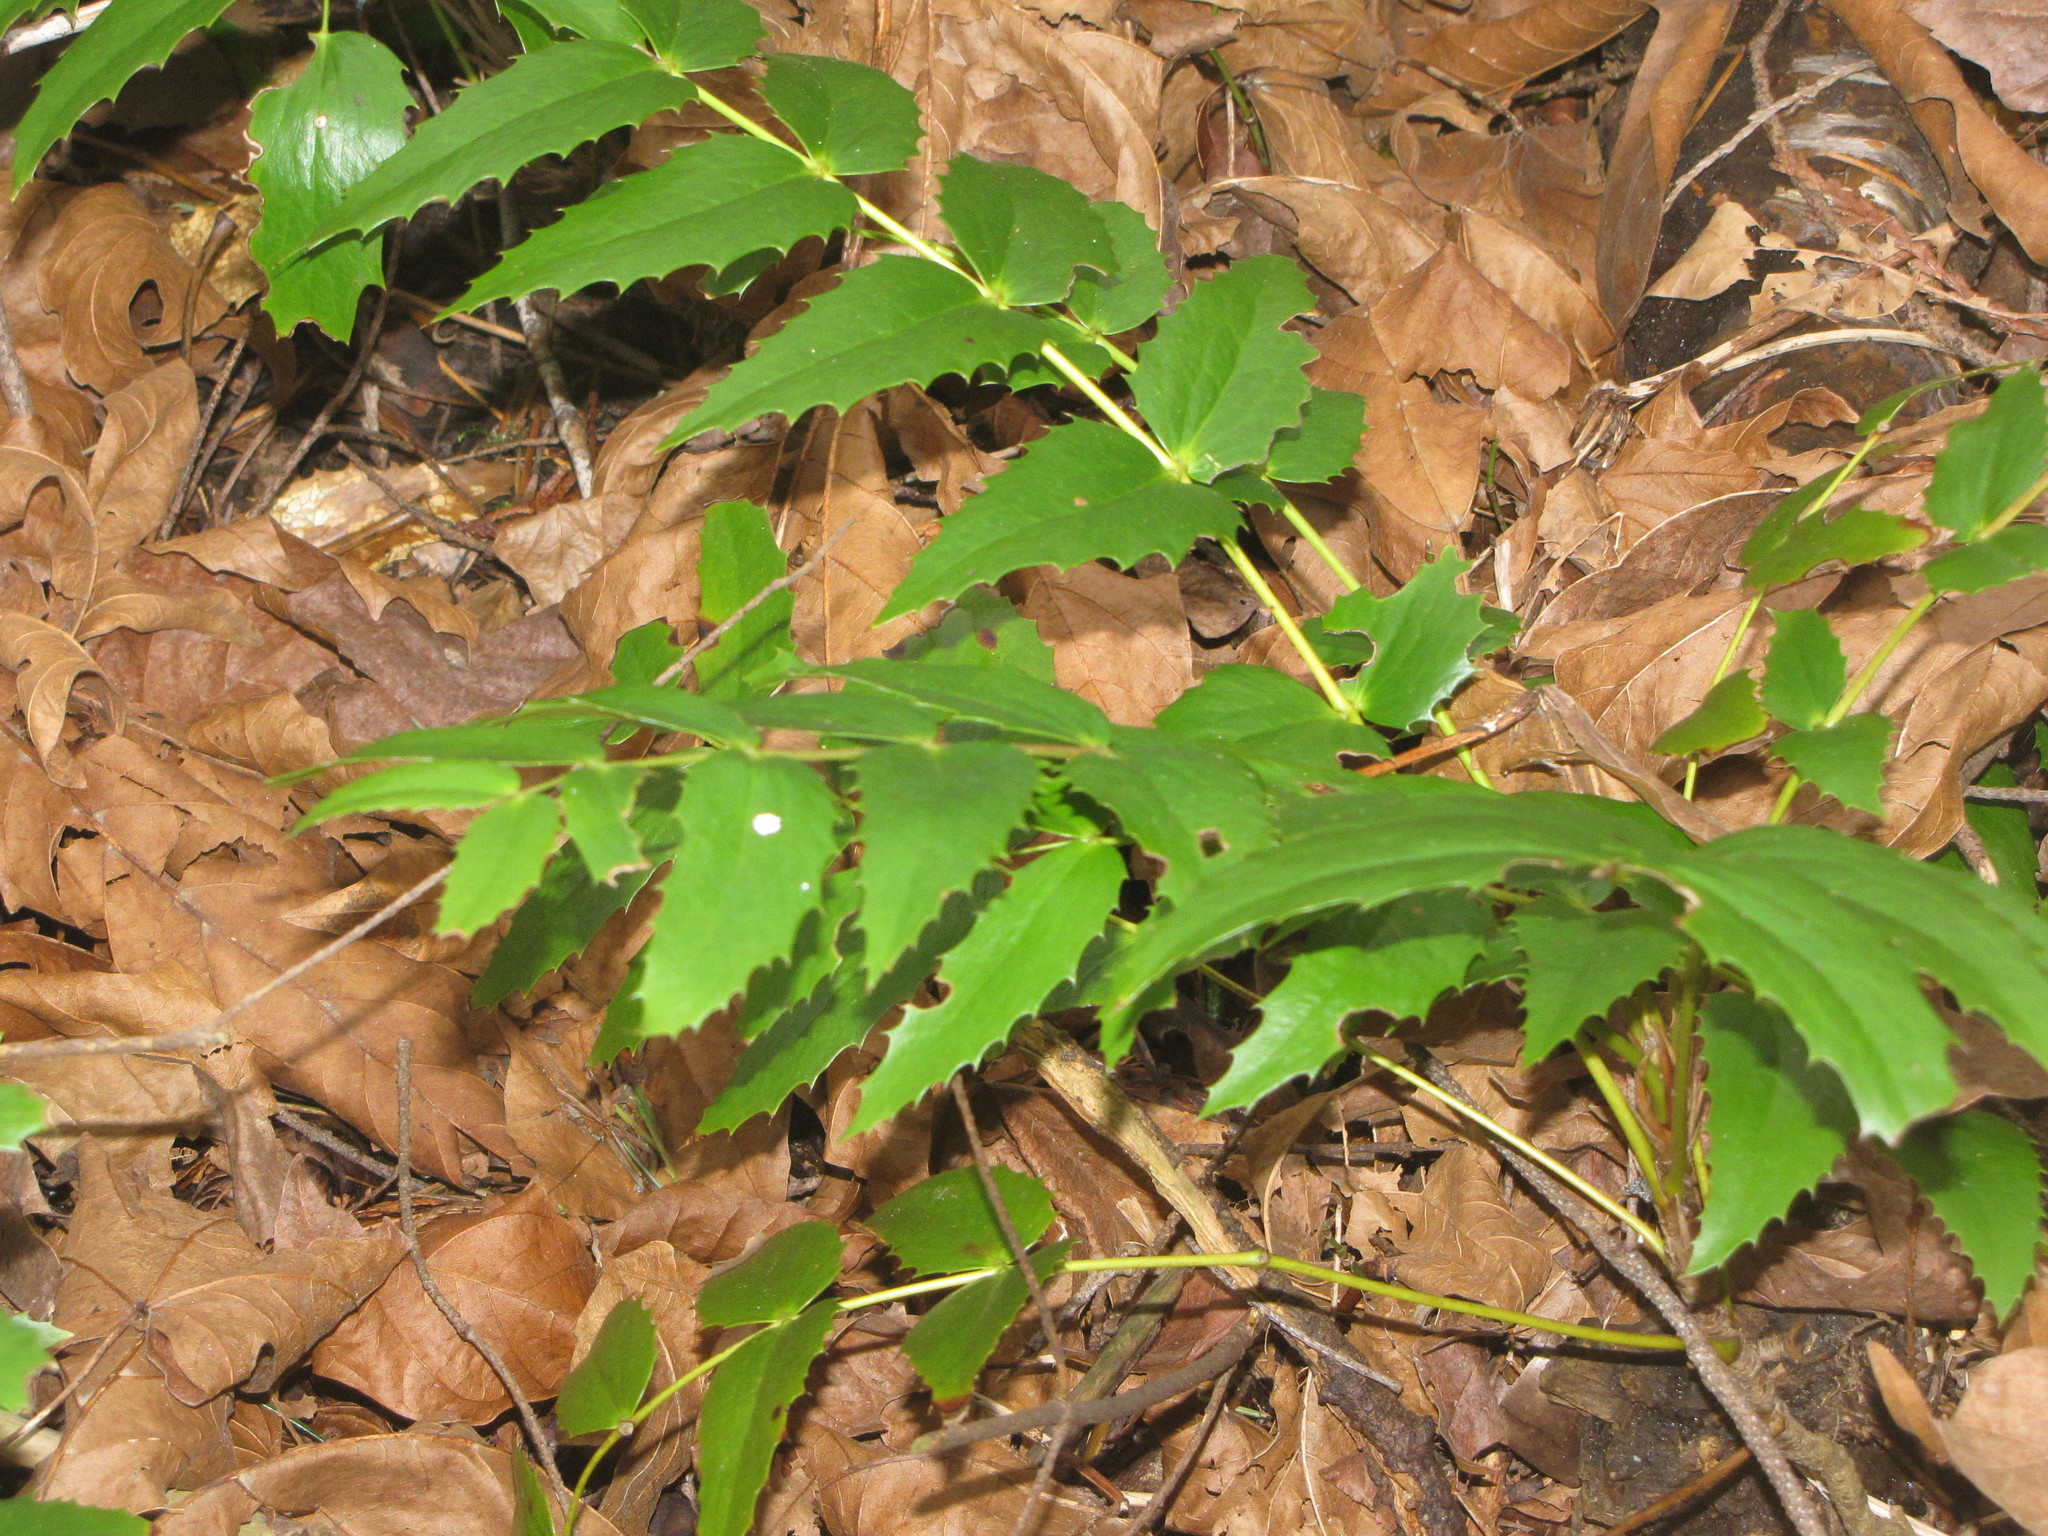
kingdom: Plantae
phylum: Tracheophyta
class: Magnoliopsida
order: Ranunculales
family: Berberidaceae
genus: Mahonia
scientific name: Mahonia nervosa
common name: Cascade oregon-grape
